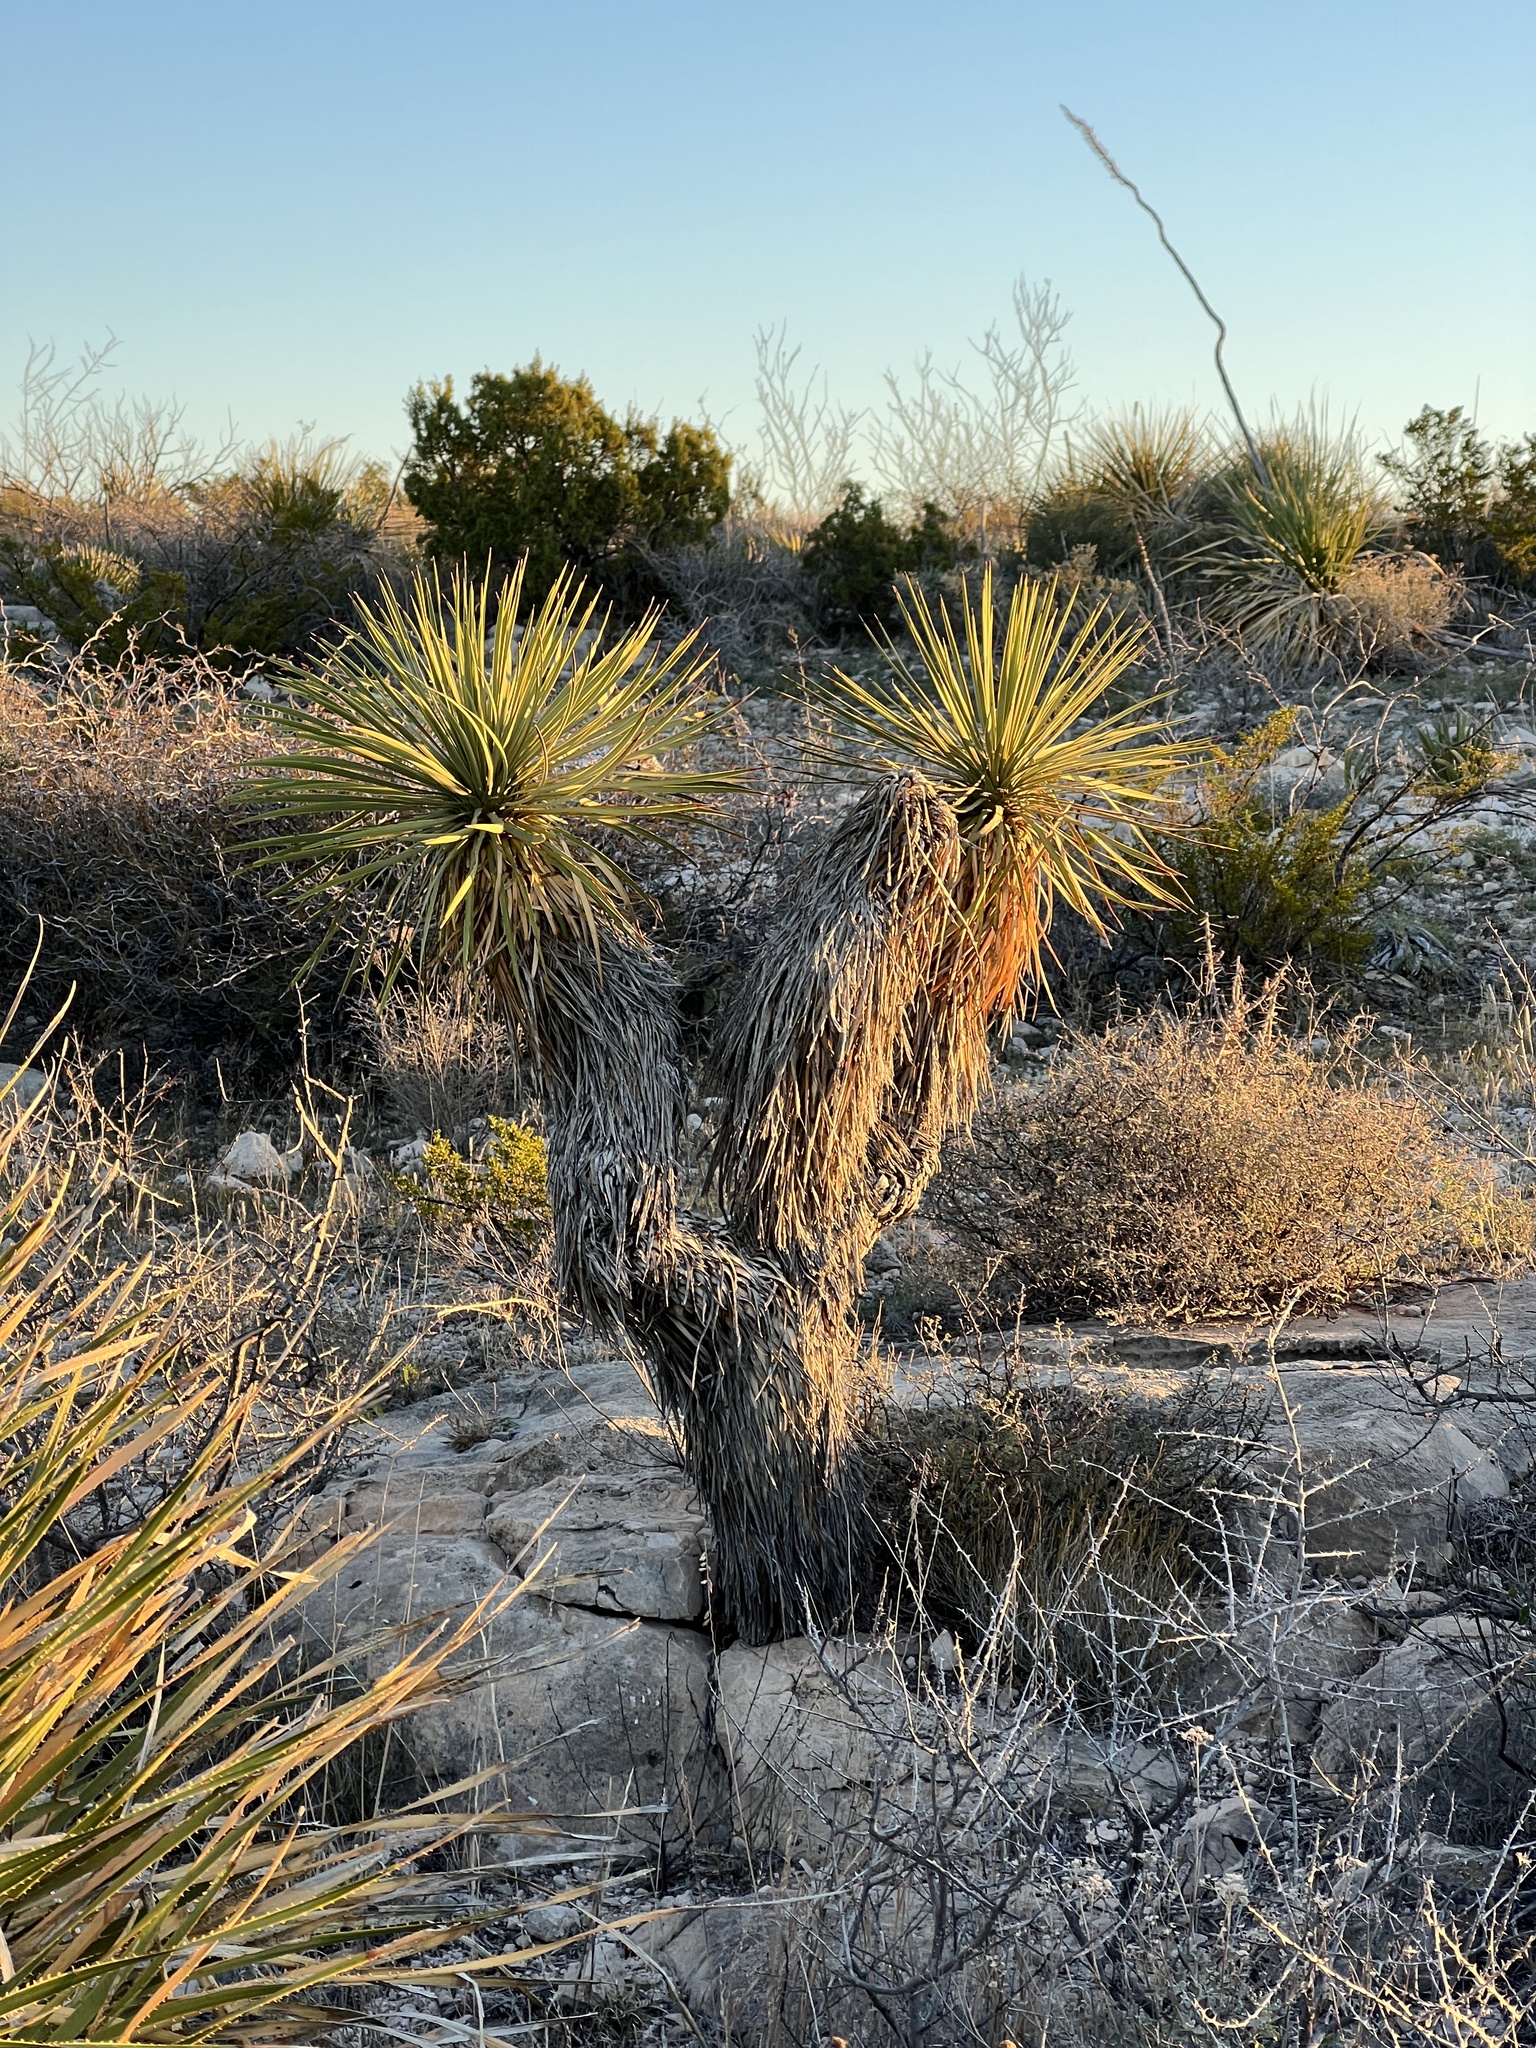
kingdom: Plantae
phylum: Tracheophyta
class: Liliopsida
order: Asparagales
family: Asparagaceae
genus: Yucca
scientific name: Yucca thompsoniana
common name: Trans-pecos yucca
